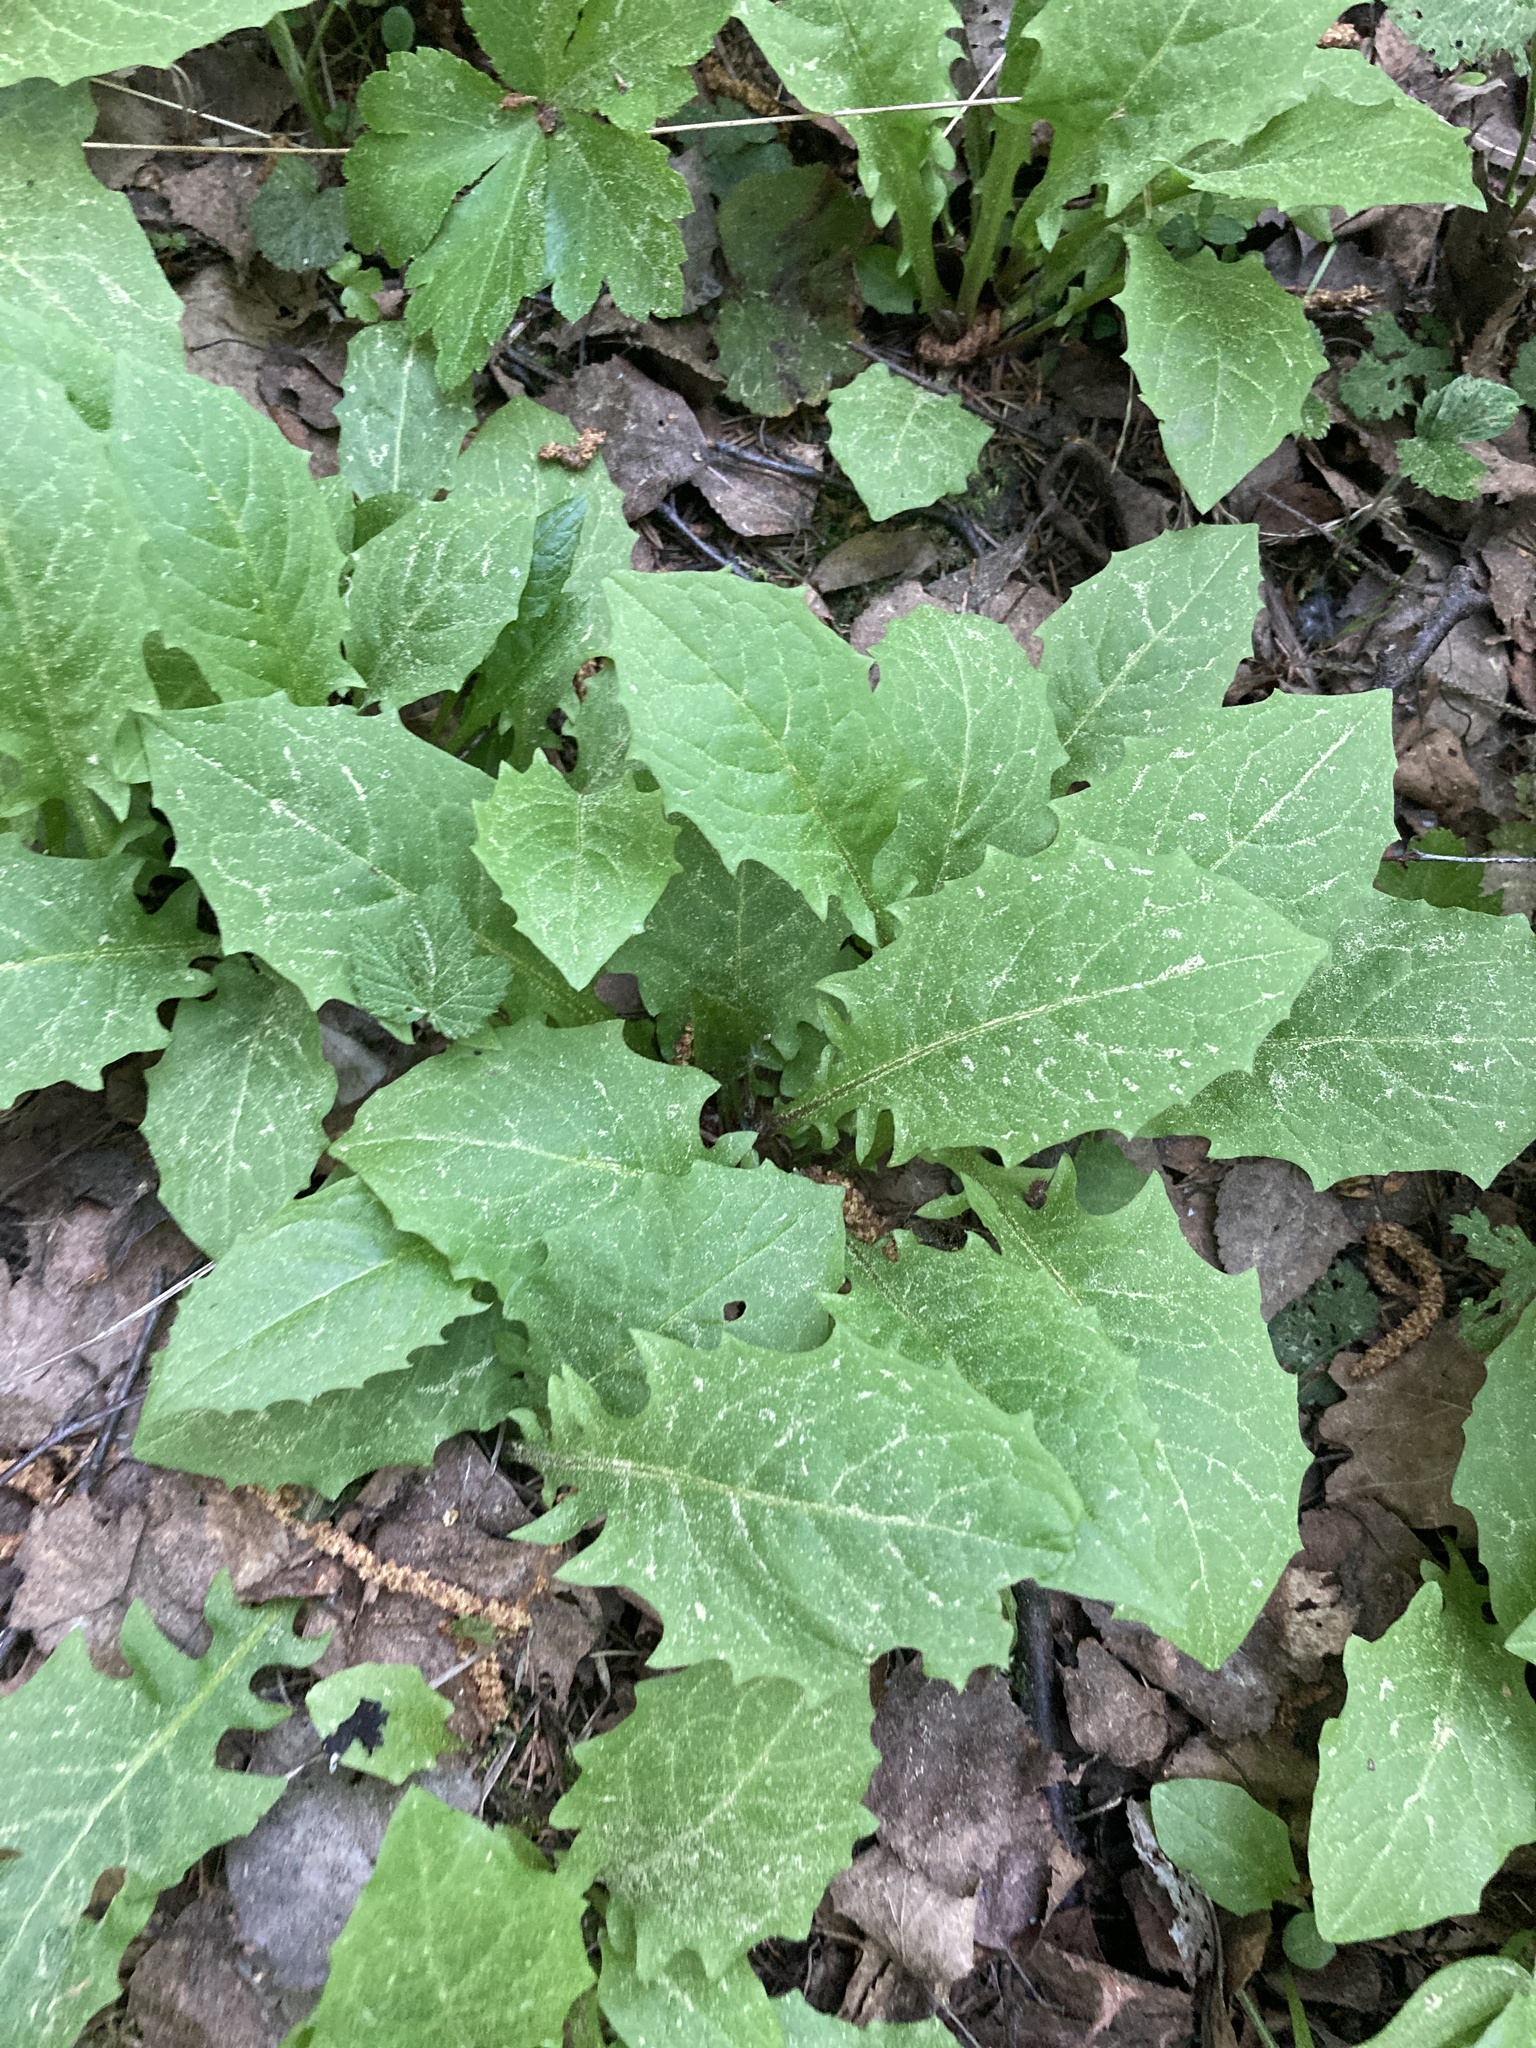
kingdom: Plantae
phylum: Tracheophyta
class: Magnoliopsida
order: Asterales
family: Asteraceae
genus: Crepis
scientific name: Crepis paludosa
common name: Marsh hawk's-beard
